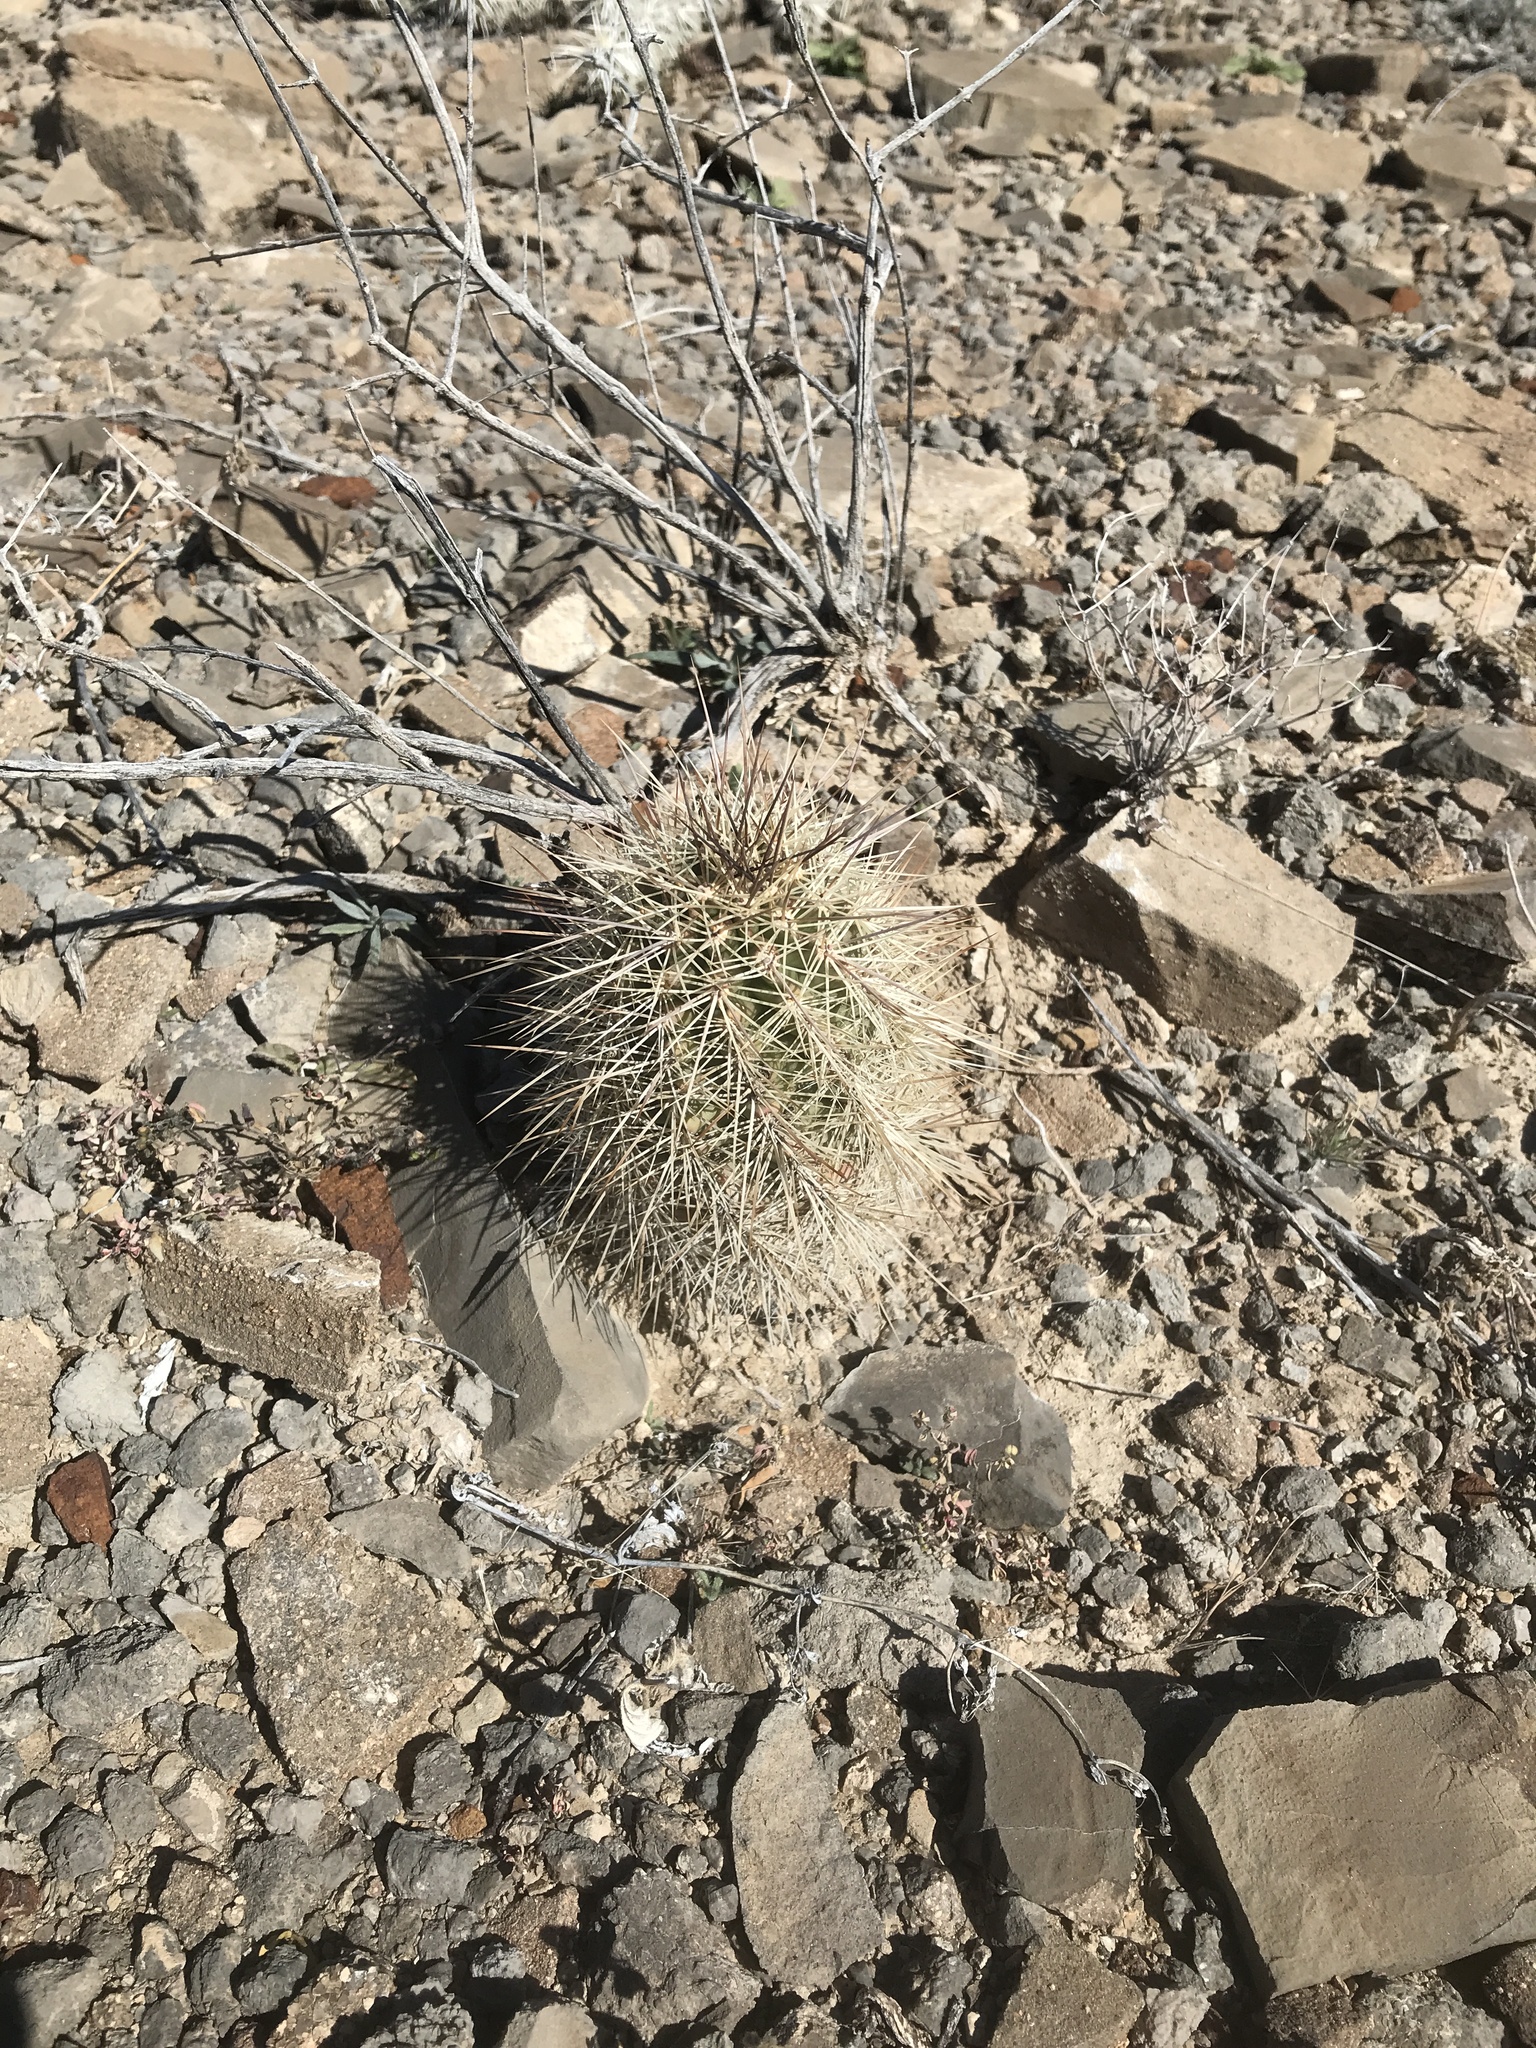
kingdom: Plantae
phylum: Tracheophyta
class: Magnoliopsida
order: Caryophyllales
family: Cactaceae
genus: Echinocereus
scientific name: Echinocereus coccineus
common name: Scarlet hedgehog cactus
